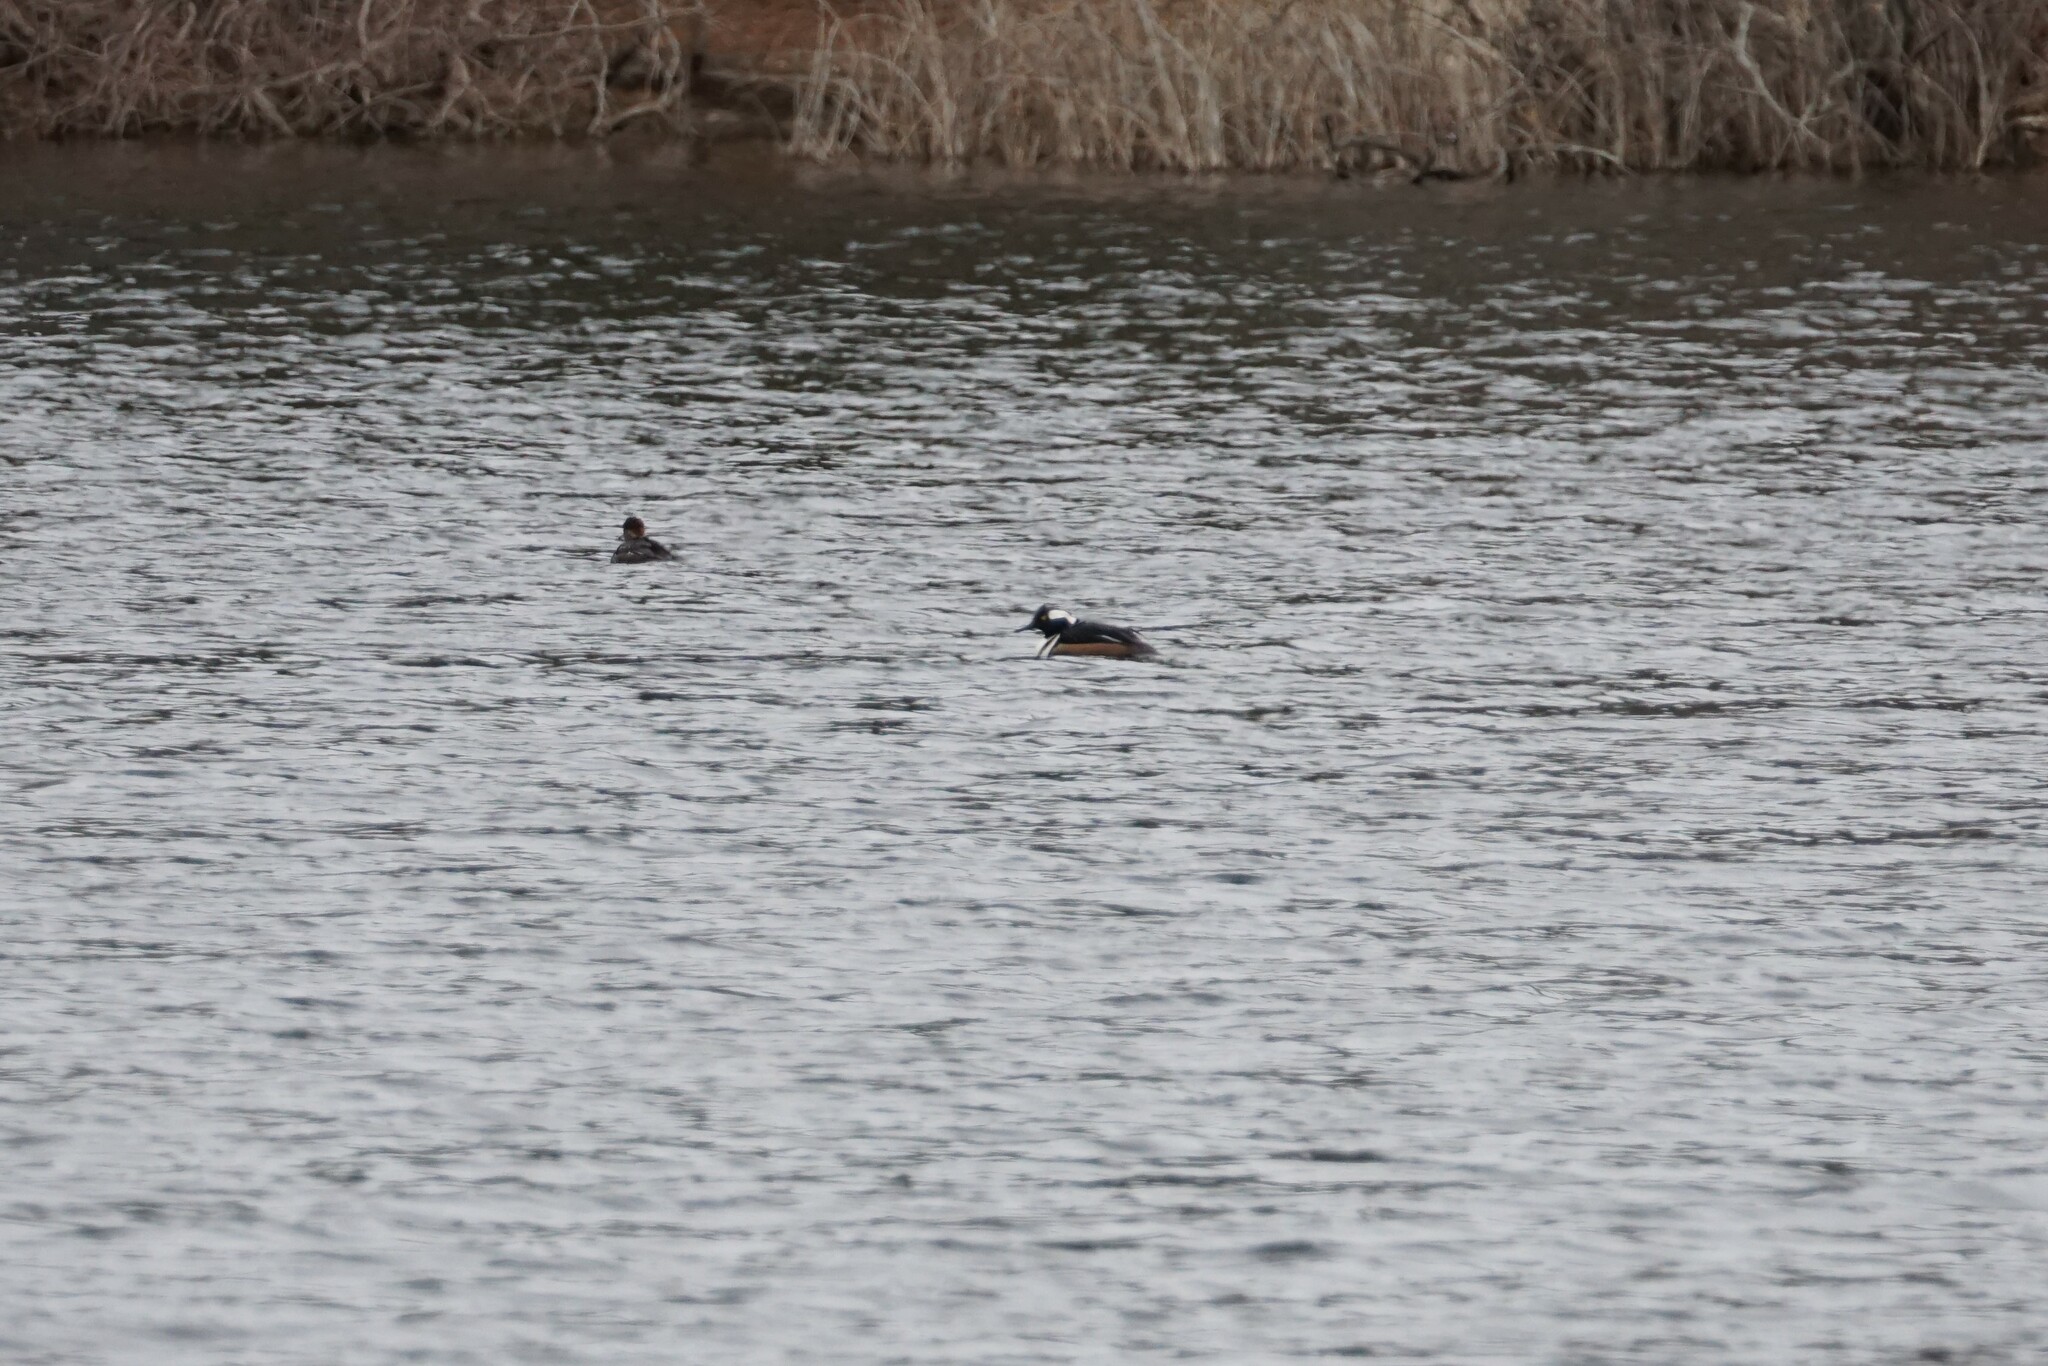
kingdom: Animalia
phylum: Chordata
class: Aves
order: Anseriformes
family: Anatidae
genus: Lophodytes
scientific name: Lophodytes cucullatus
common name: Hooded merganser
